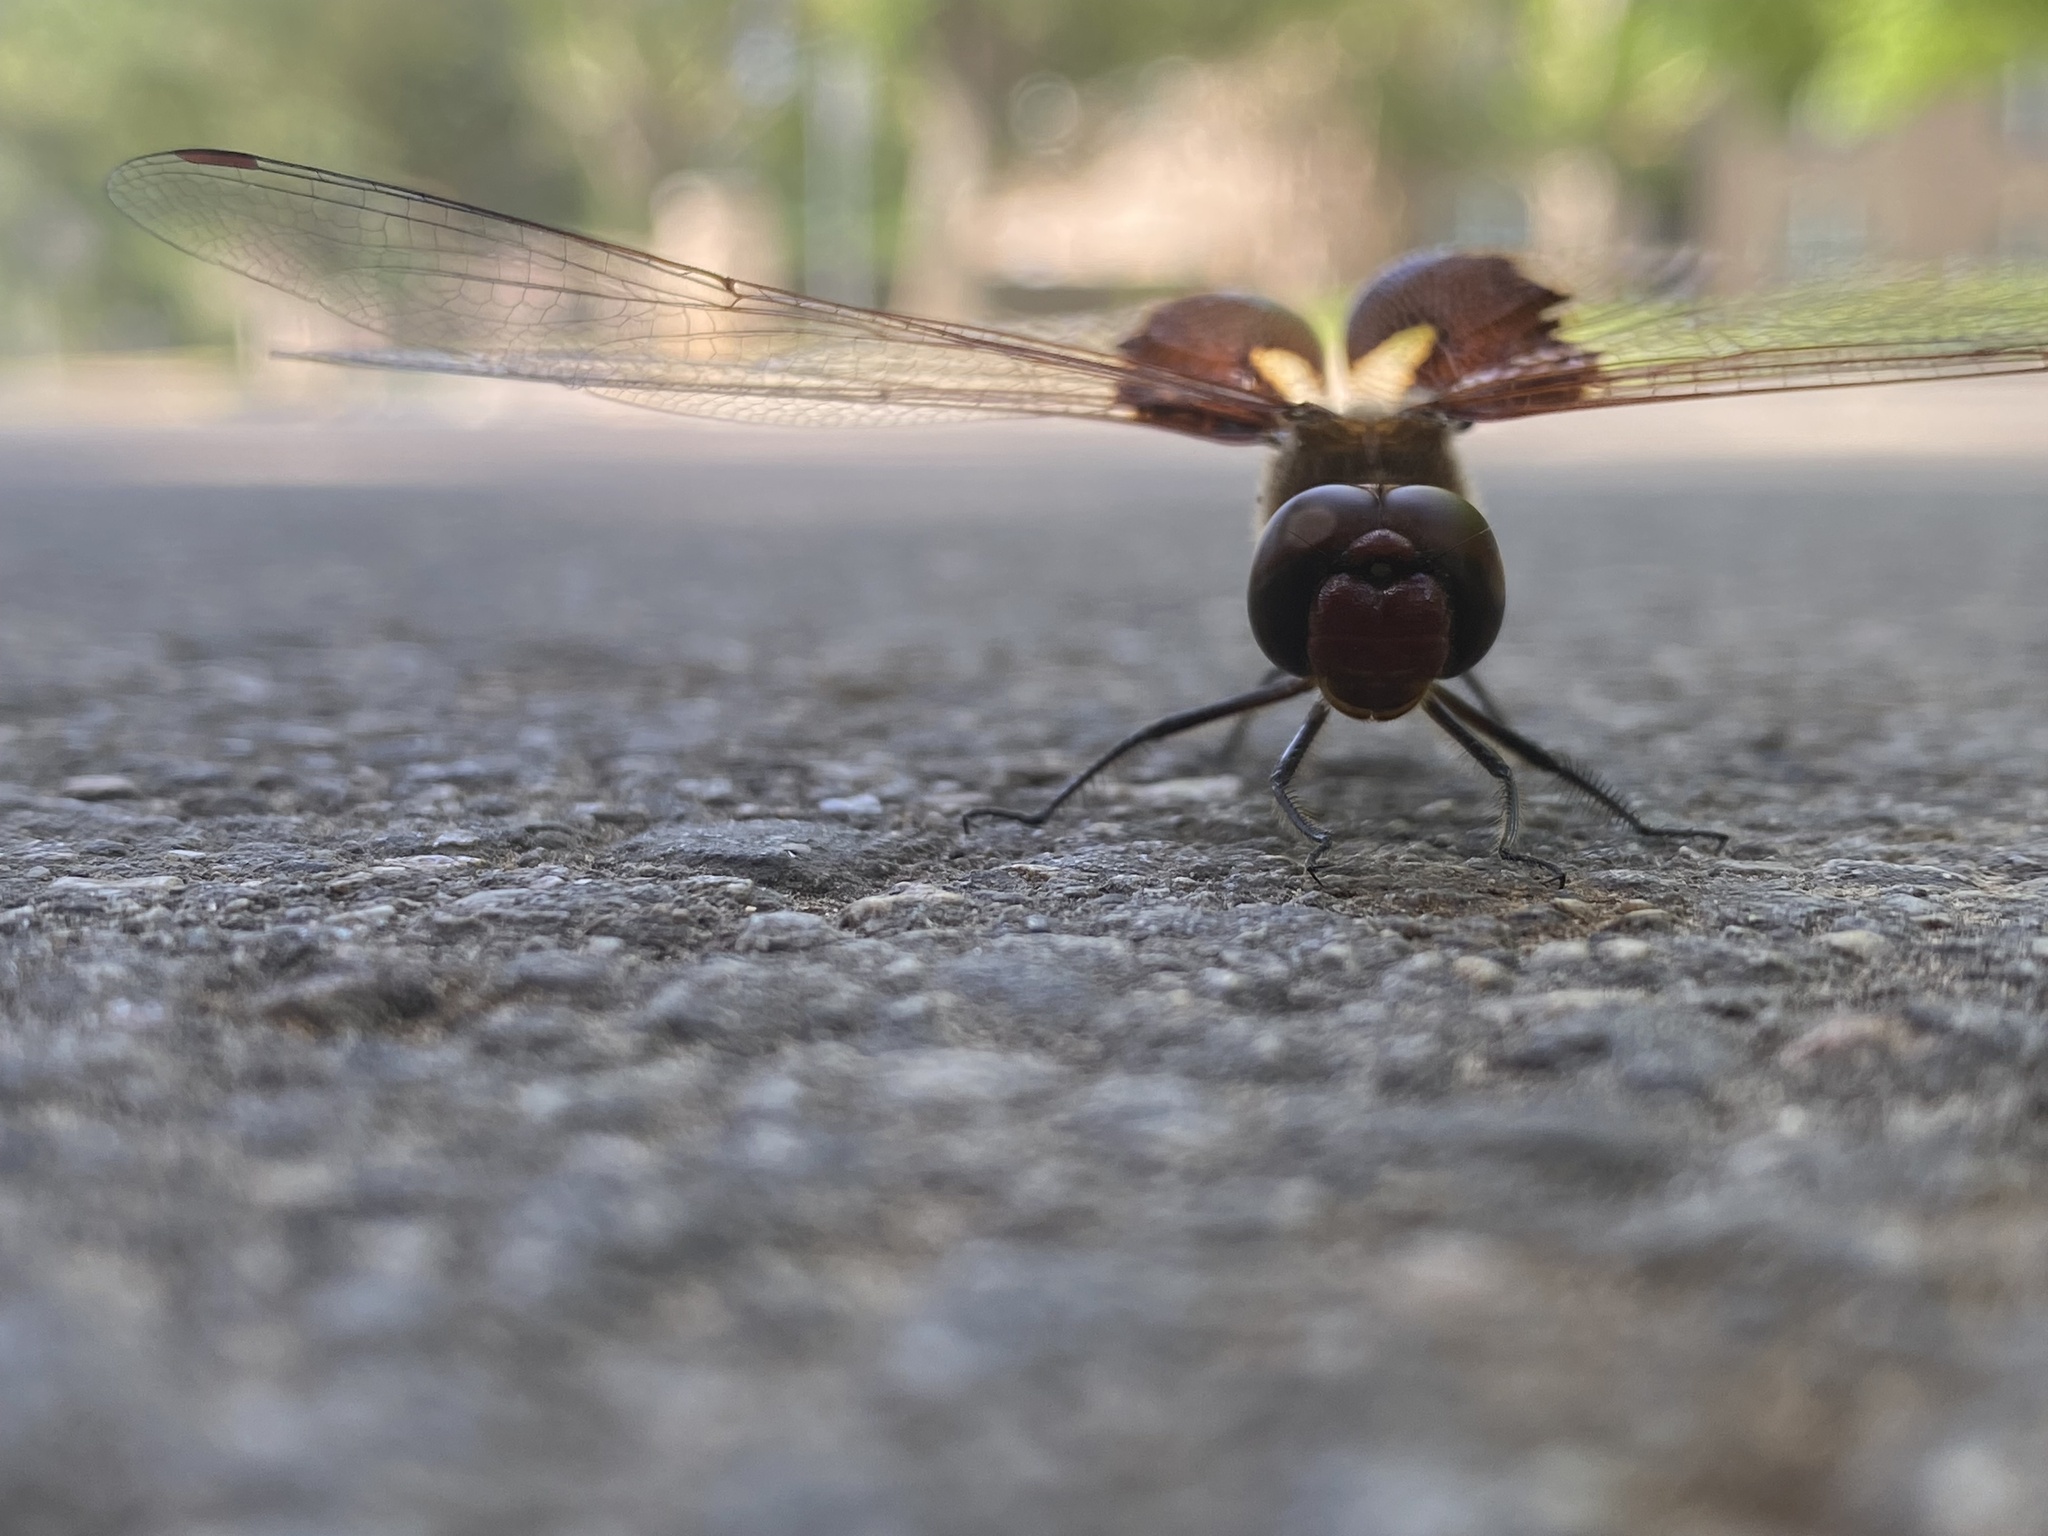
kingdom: Animalia
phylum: Arthropoda
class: Insecta
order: Odonata
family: Libellulidae
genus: Tramea
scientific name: Tramea onusta
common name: Red saddlebags
